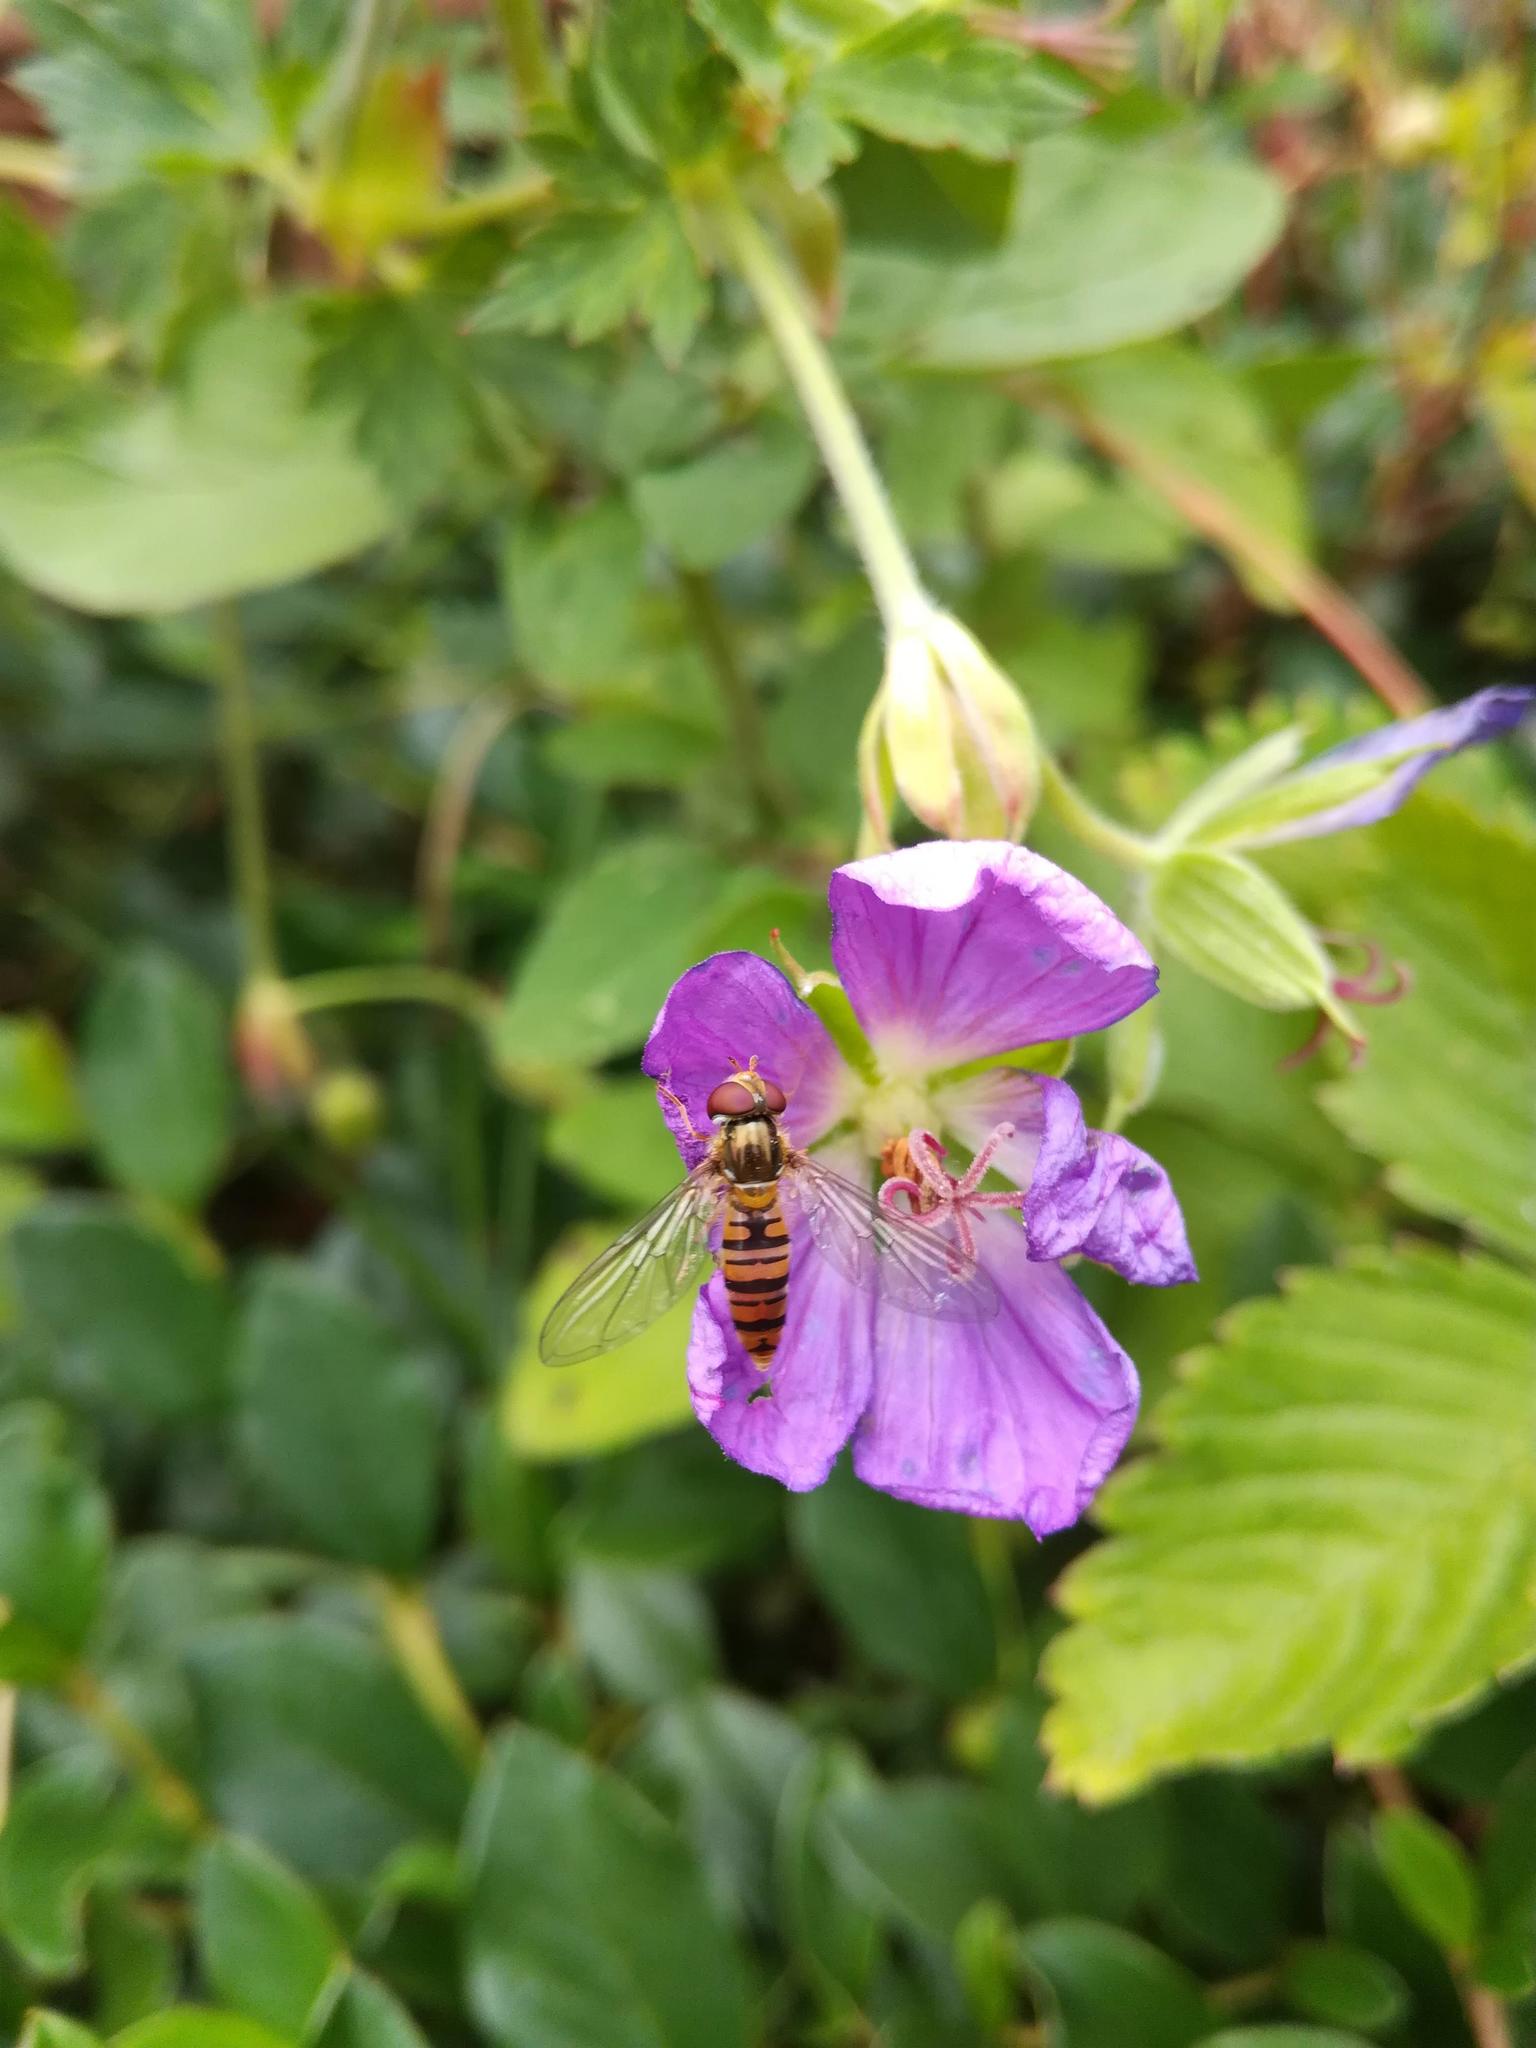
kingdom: Animalia
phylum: Arthropoda
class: Insecta
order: Diptera
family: Syrphidae
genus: Episyrphus
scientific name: Episyrphus balteatus
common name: Marmalade hoverfly
